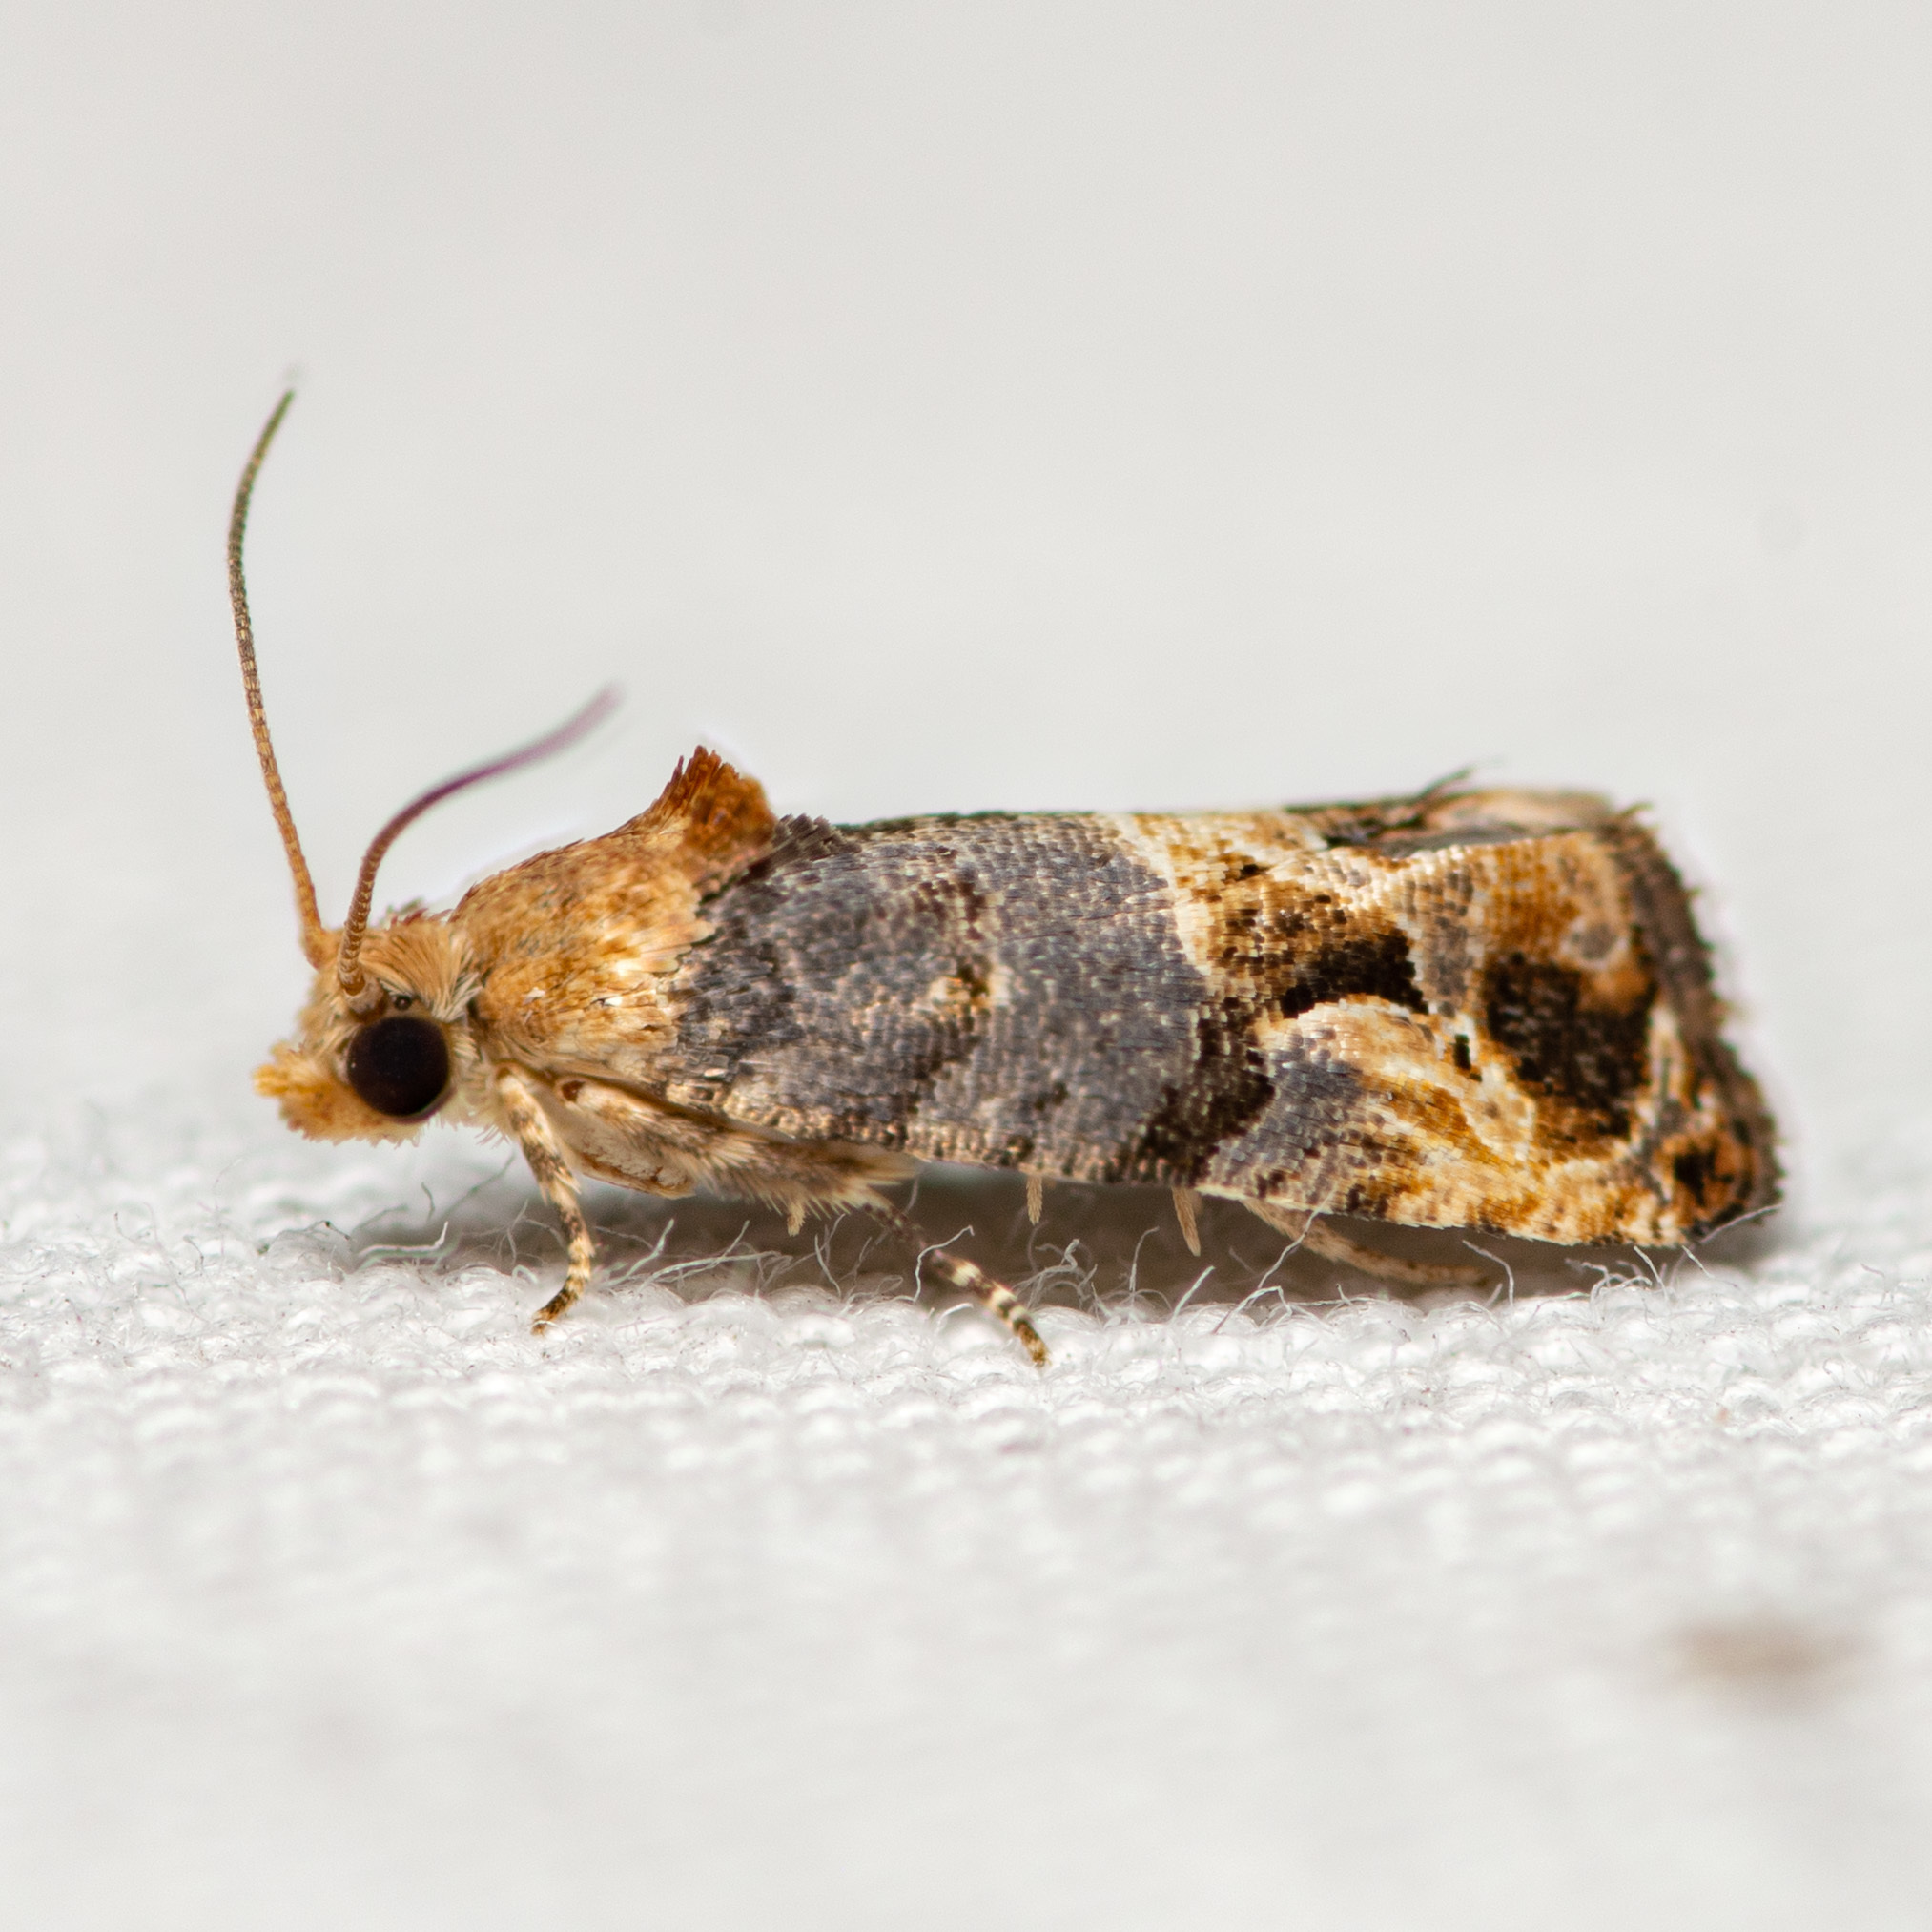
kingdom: Animalia
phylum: Arthropoda
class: Insecta
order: Lepidoptera
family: Tortricidae
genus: Paralobesia
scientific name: Paralobesia viteana
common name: Grape berry moth
